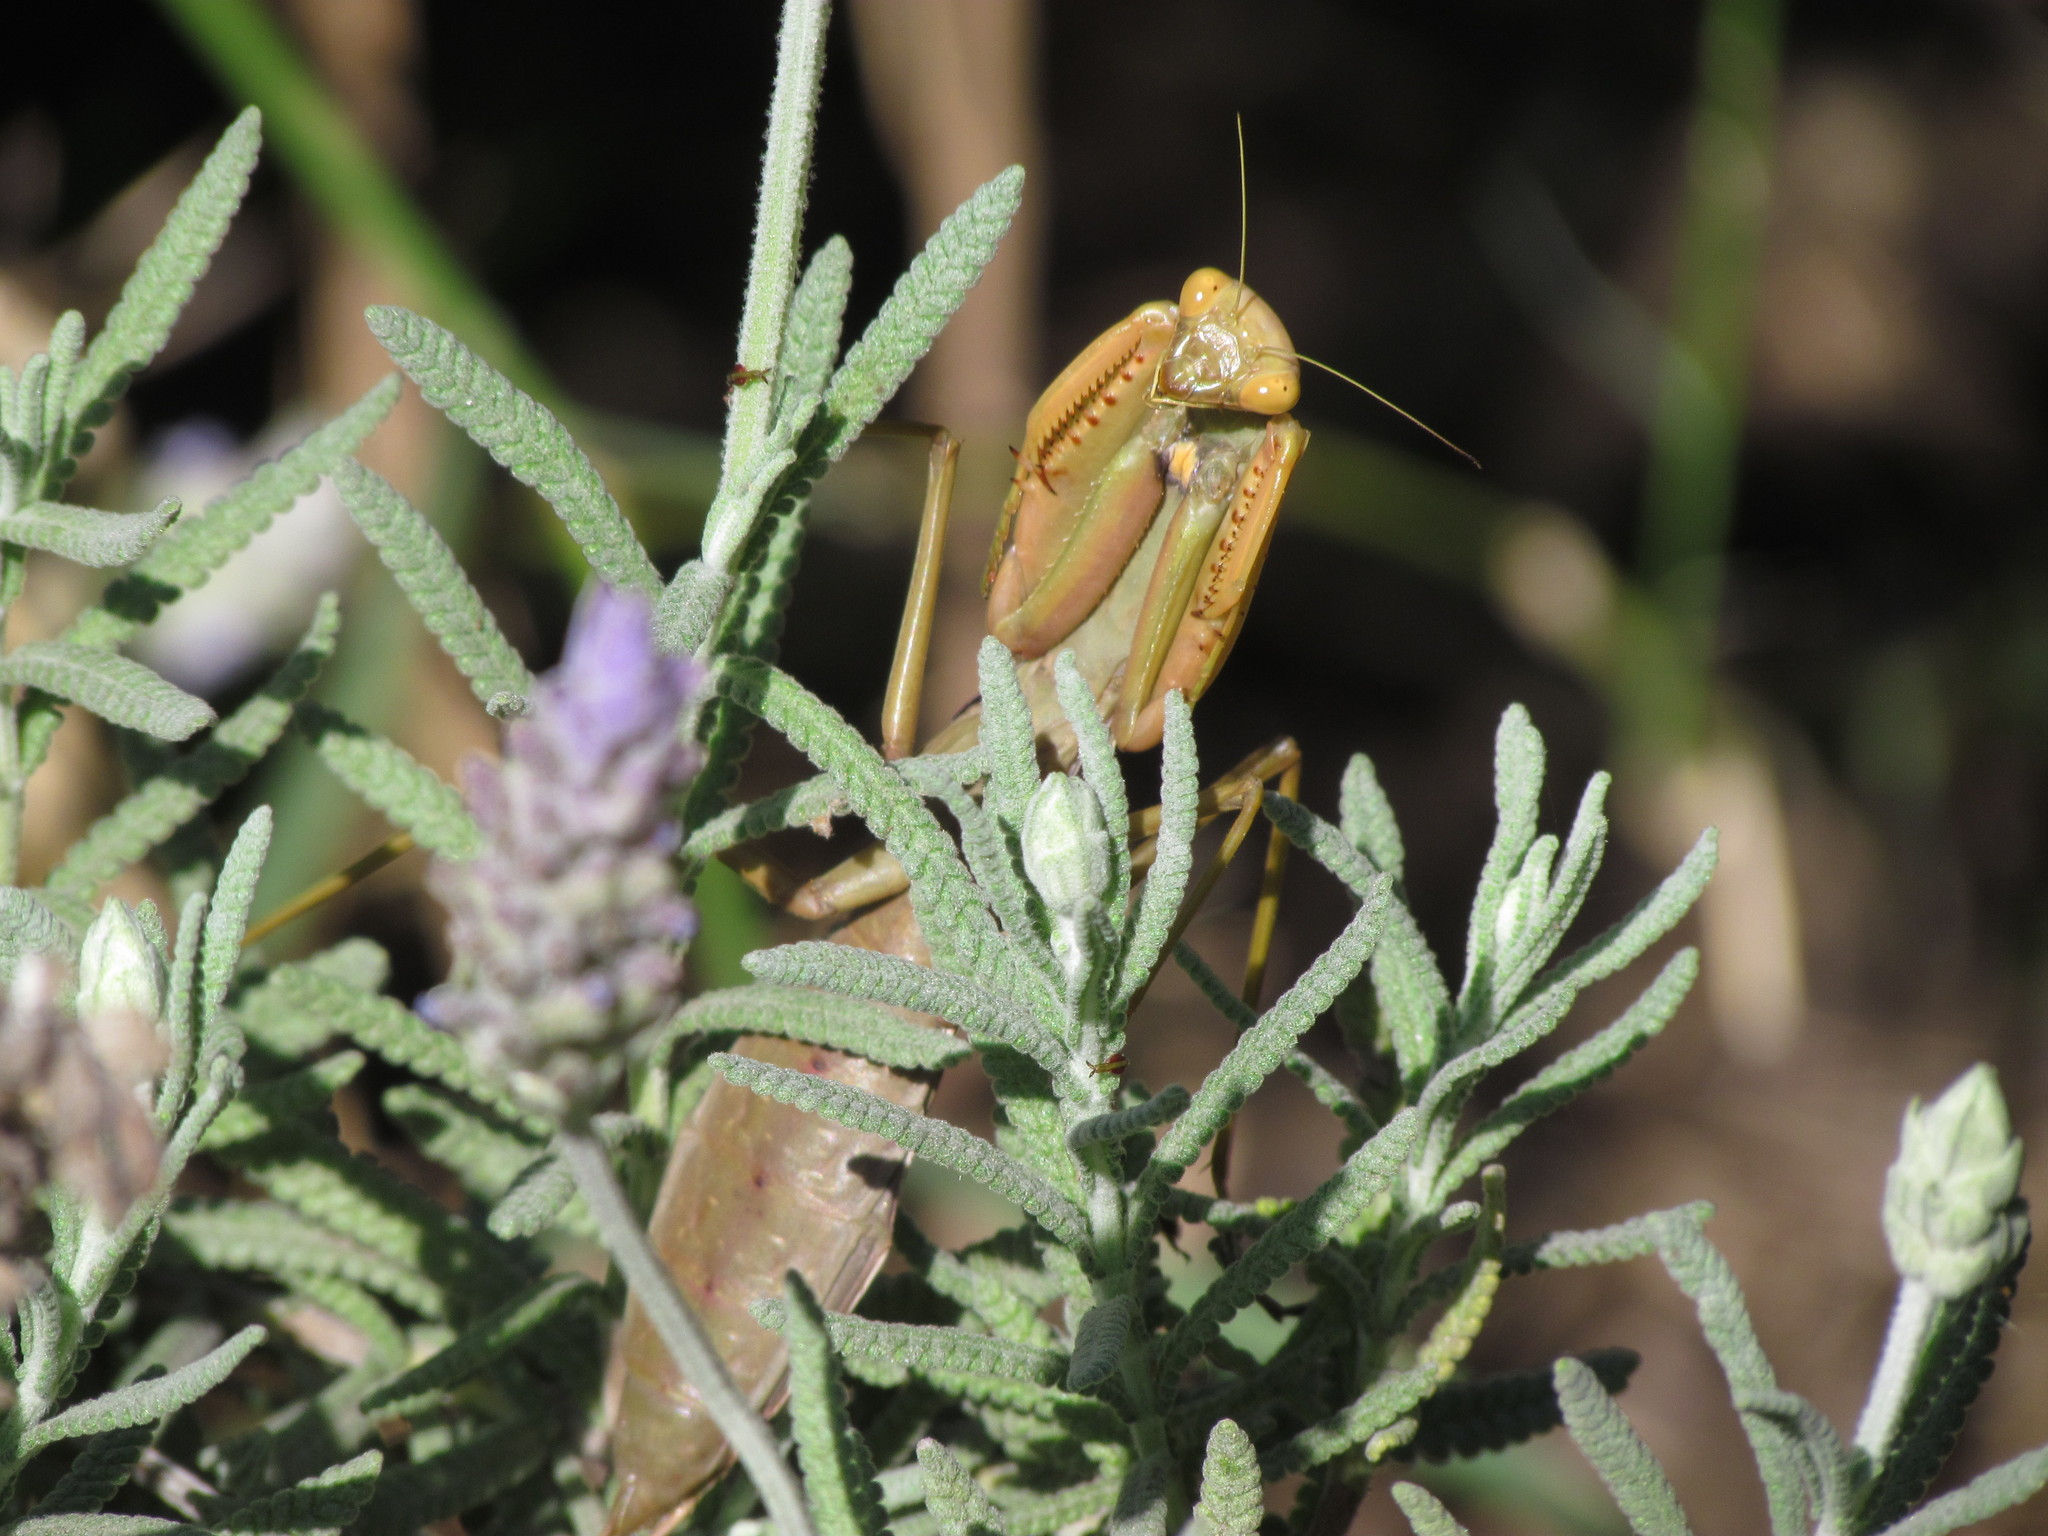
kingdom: Animalia
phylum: Arthropoda
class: Insecta
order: Mantodea
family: Coptopterygidae
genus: Coptopteryx
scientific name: Coptopteryx argentina
